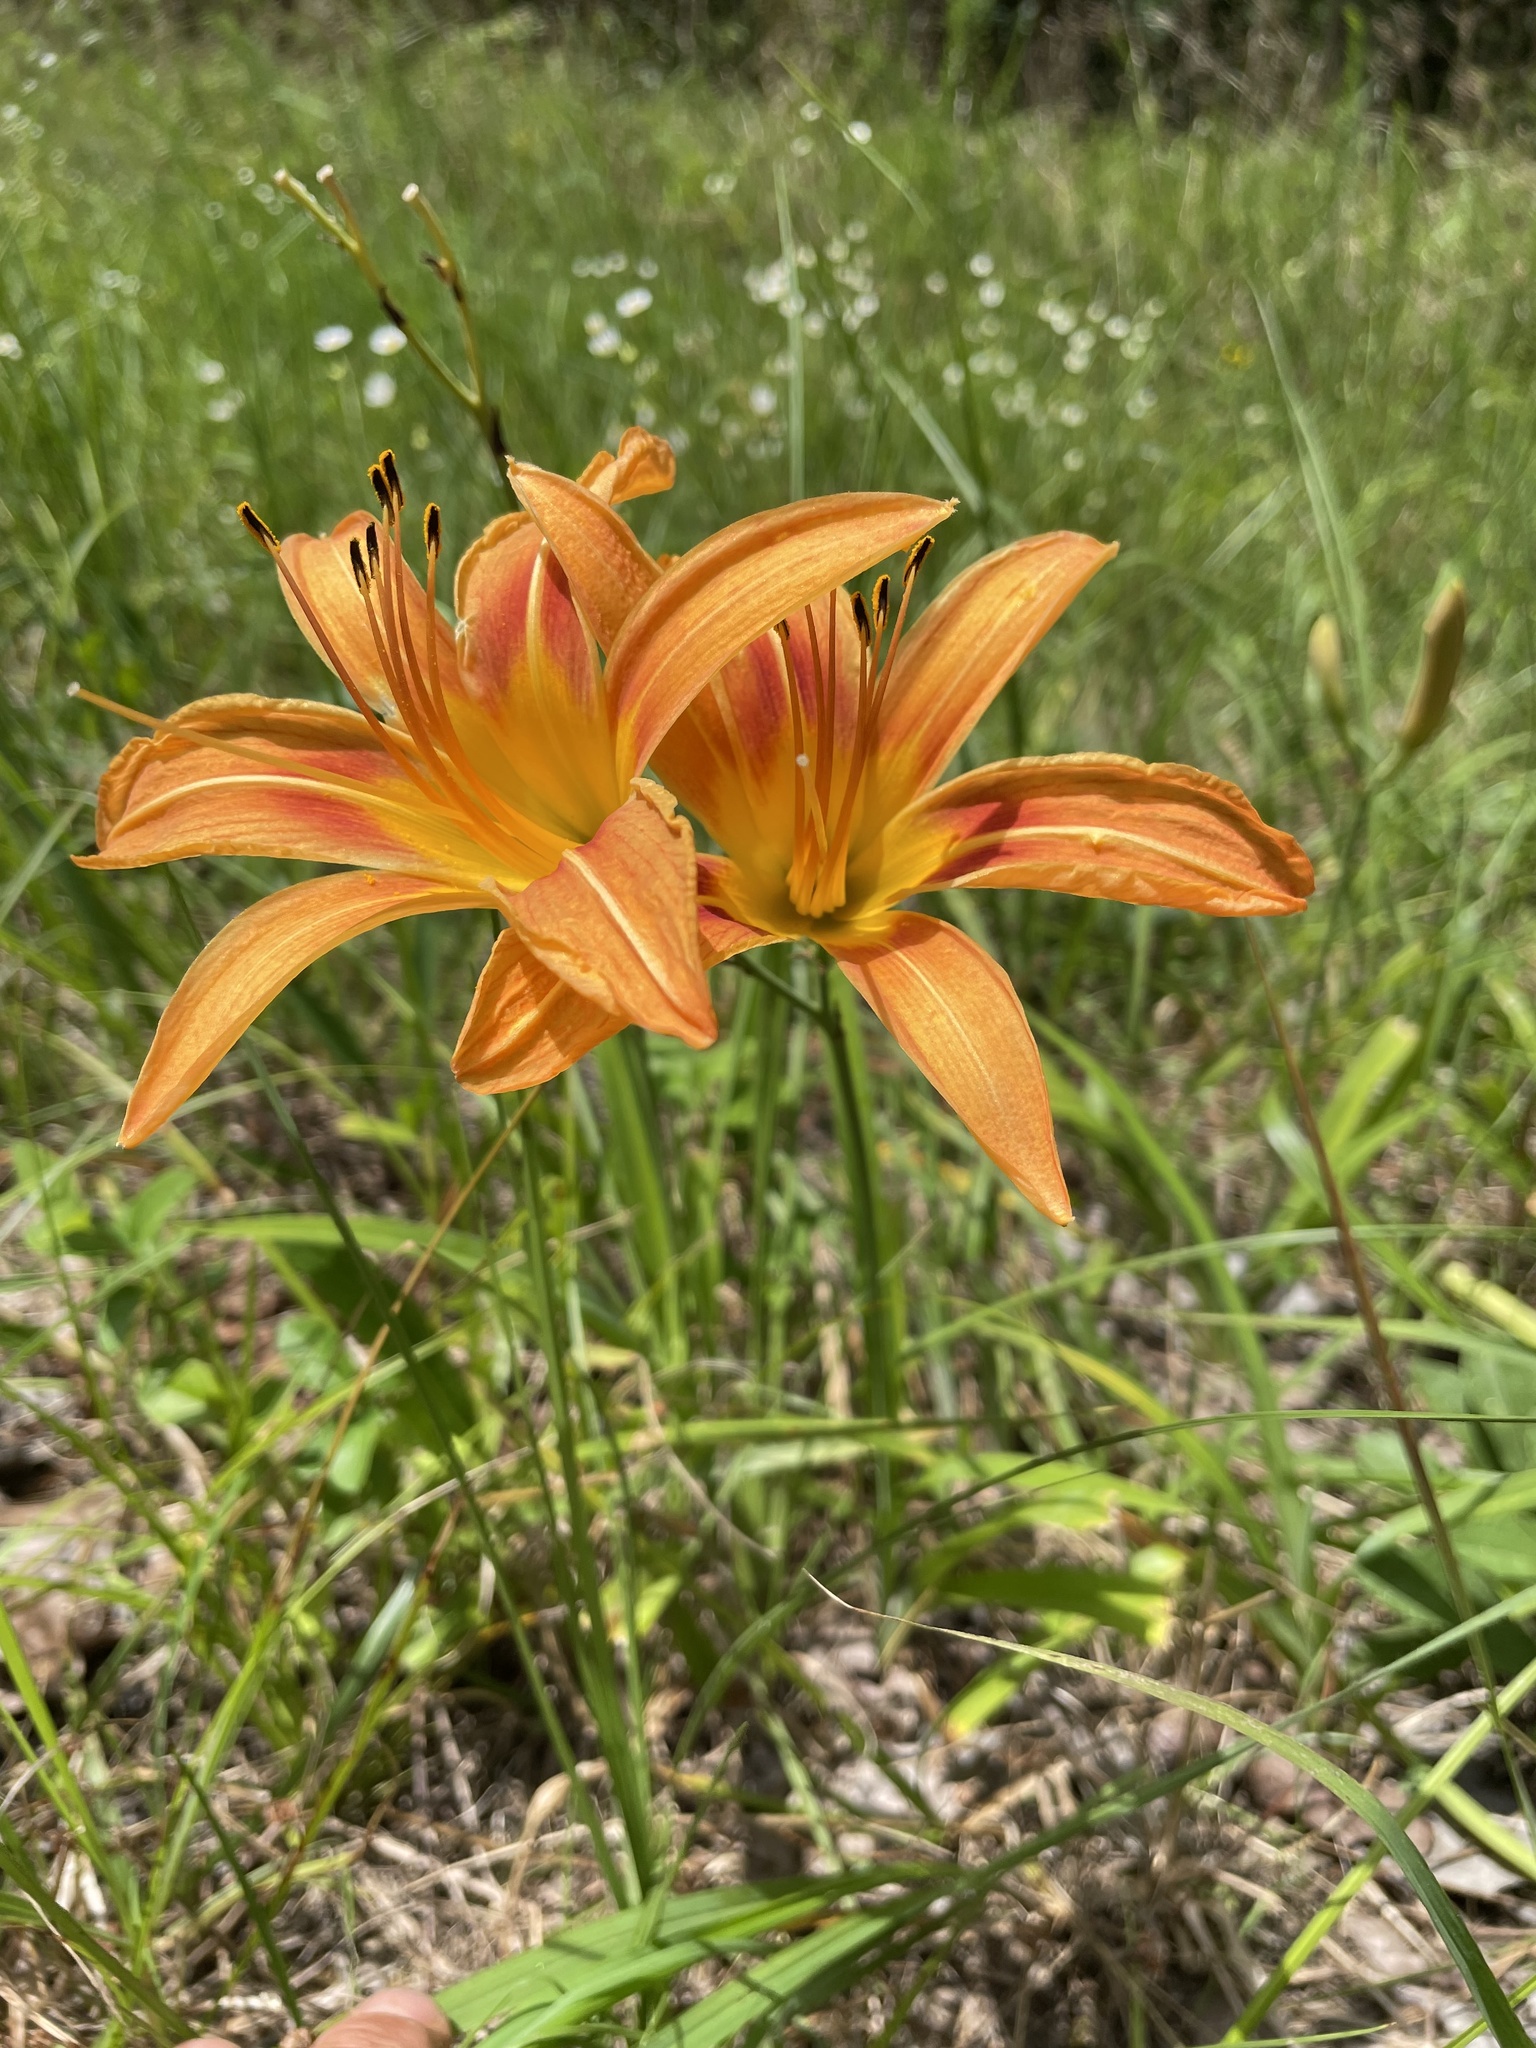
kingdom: Plantae
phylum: Tracheophyta
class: Liliopsida
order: Asparagales
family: Asphodelaceae
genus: Hemerocallis
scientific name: Hemerocallis fulva
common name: Orange day-lily
